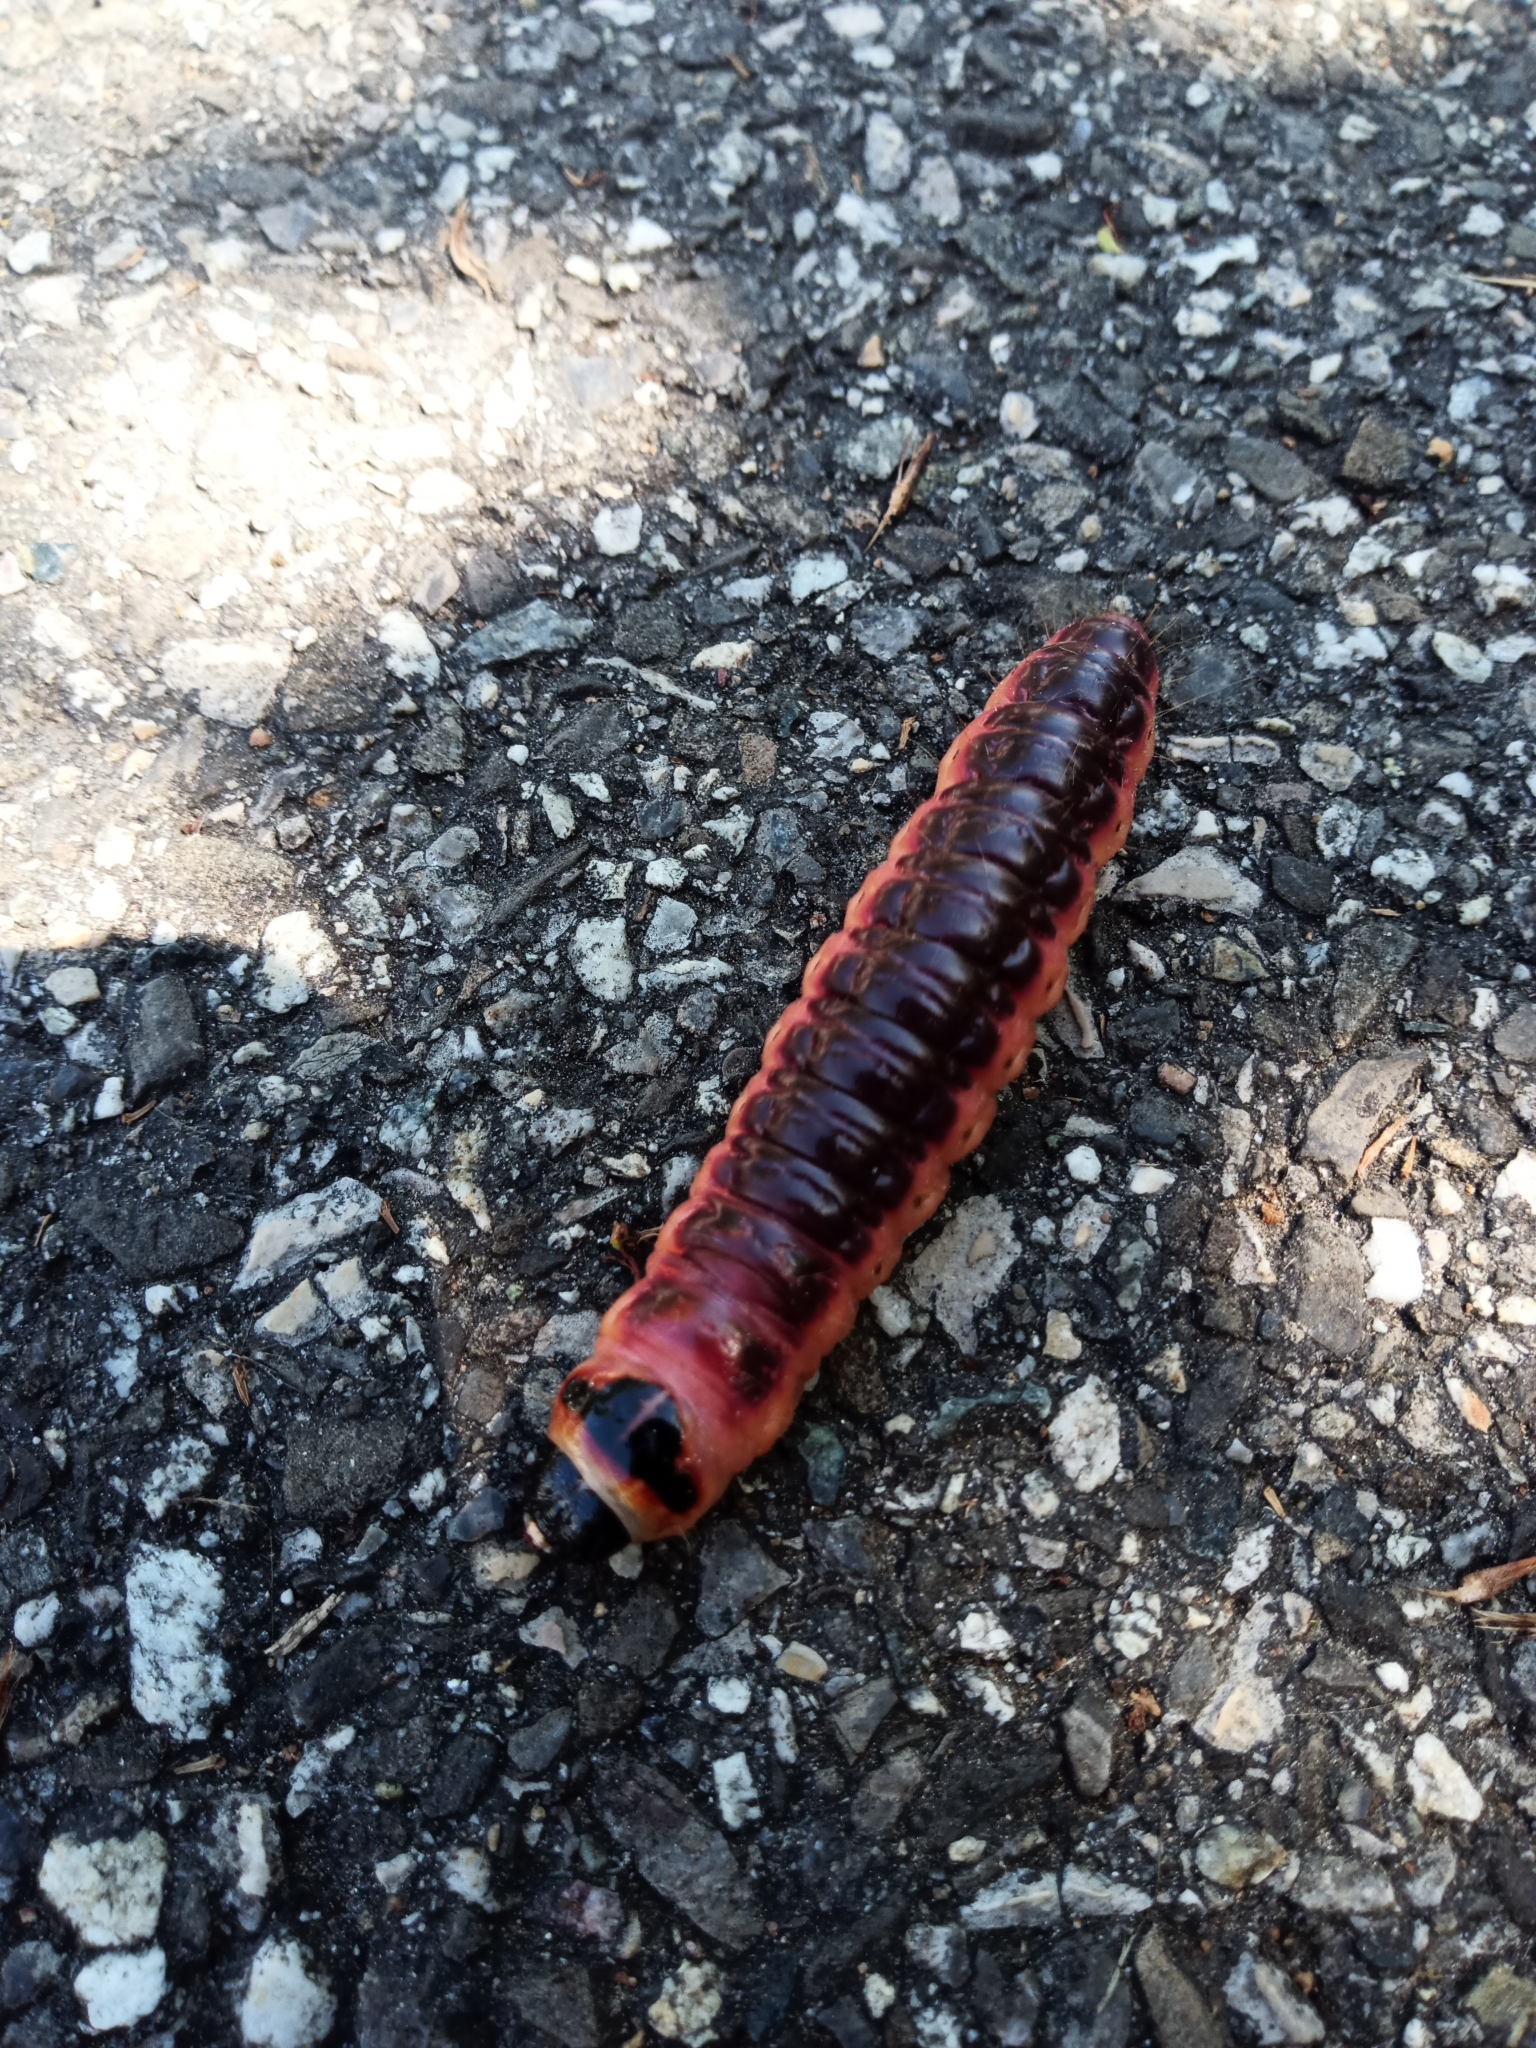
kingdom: Animalia
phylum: Arthropoda
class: Insecta
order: Lepidoptera
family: Cossidae
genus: Cossus
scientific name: Cossus cossus
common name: Goat moth
